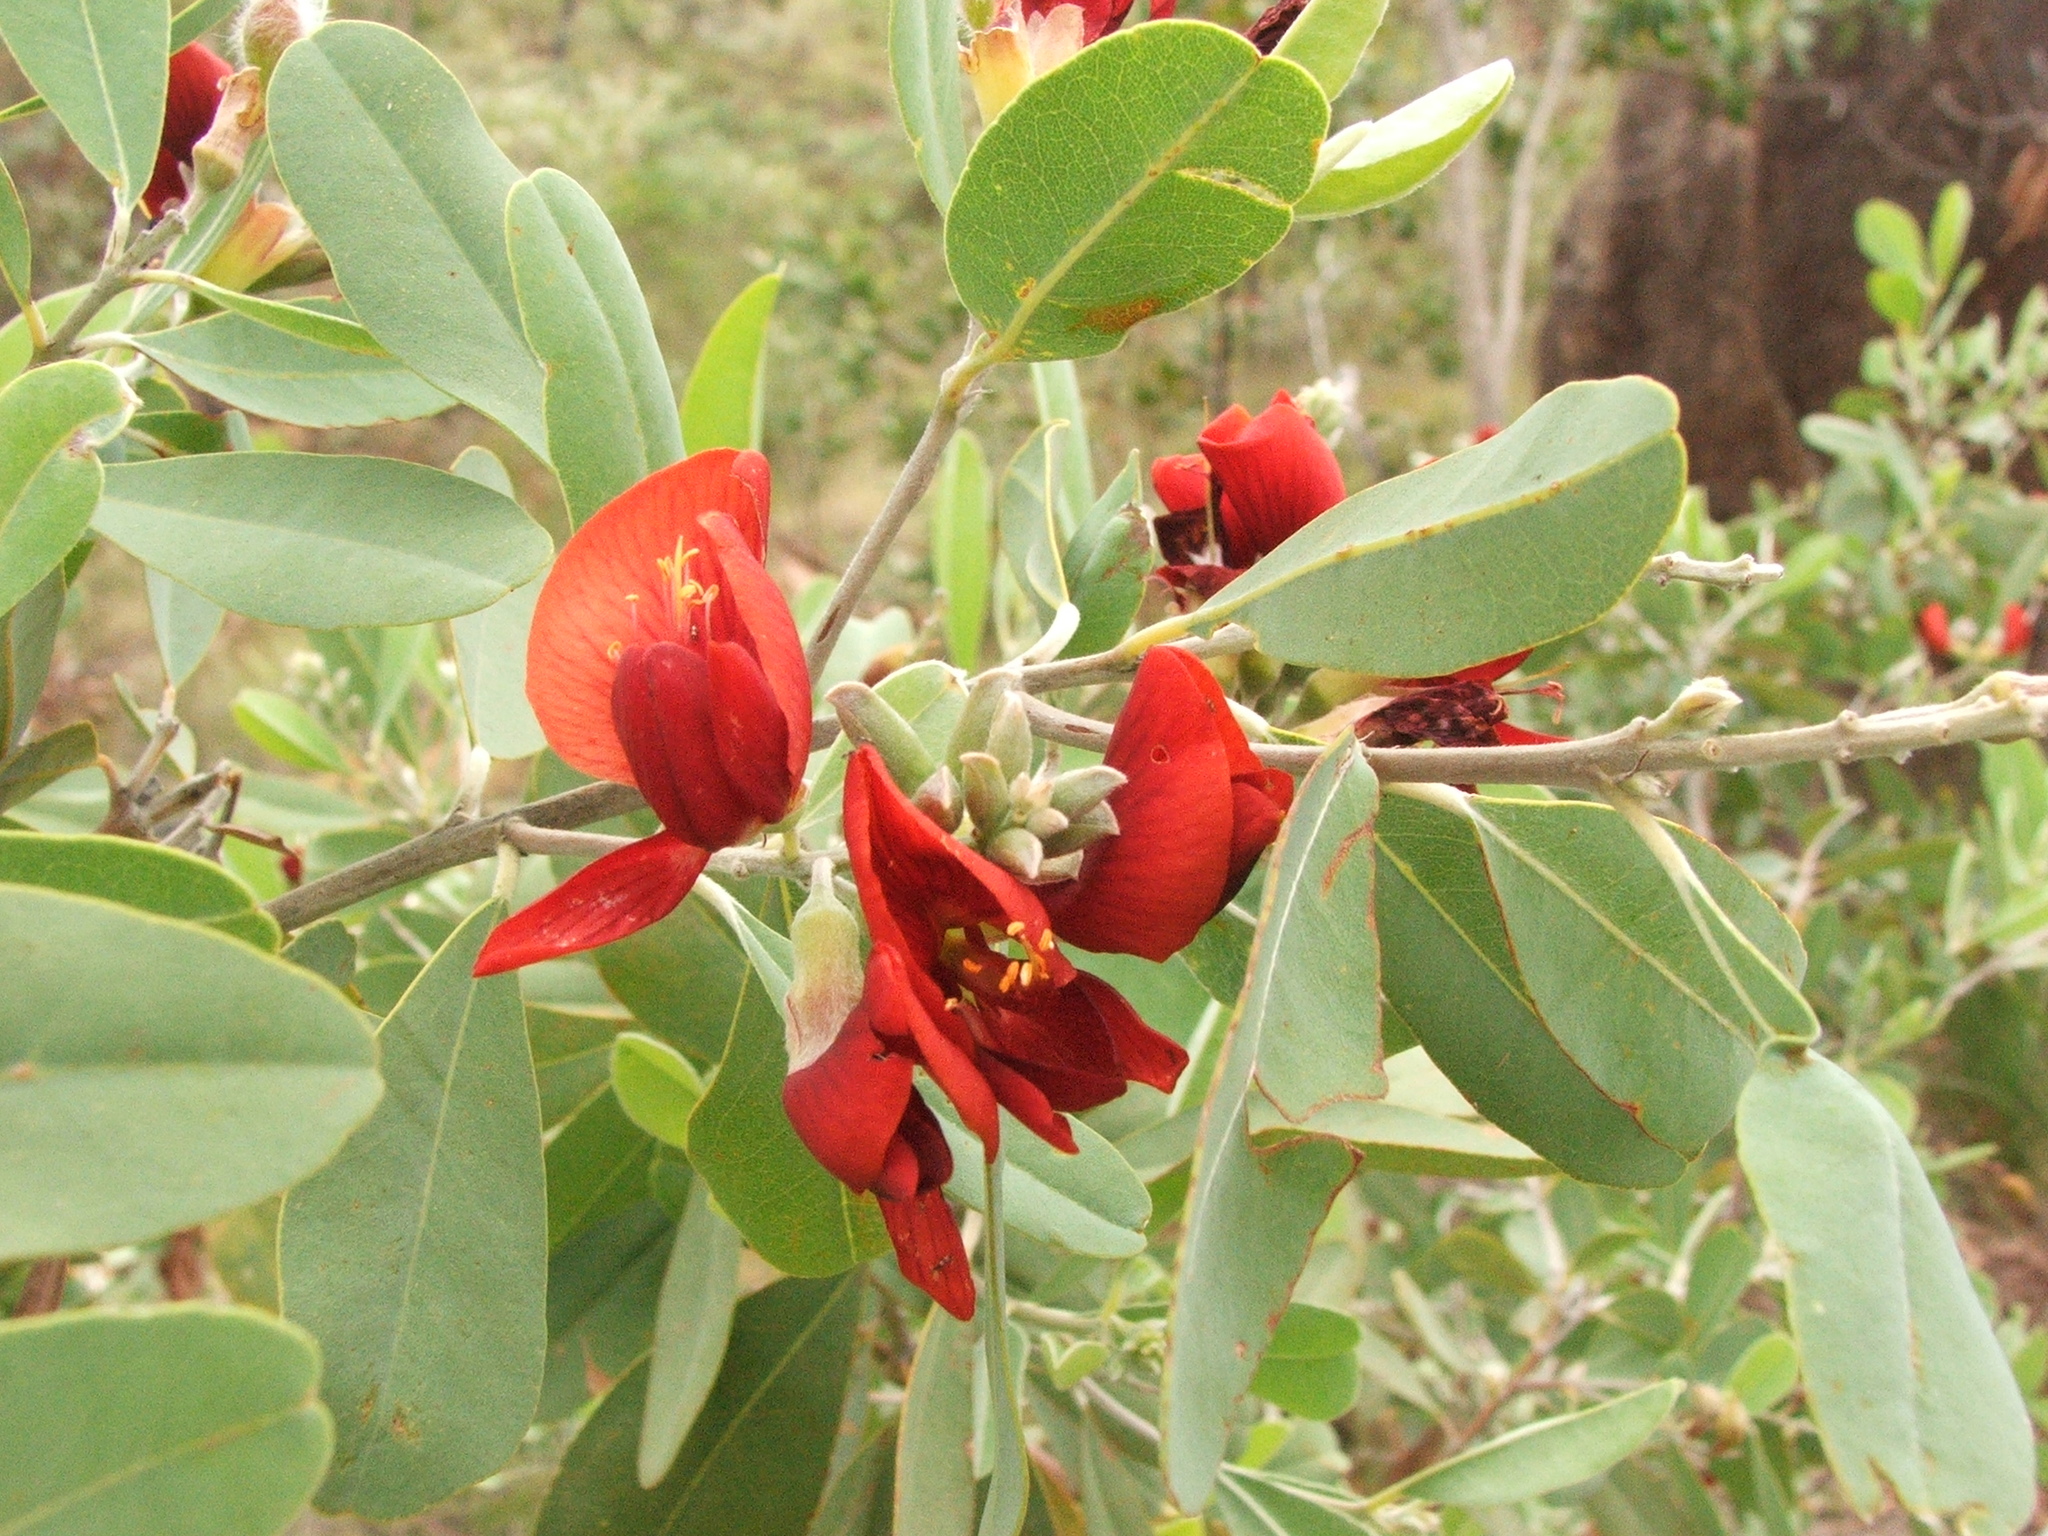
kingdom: Plantae
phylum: Tracheophyta
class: Magnoliopsida
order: Fabales
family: Fabaceae
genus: Gastrolobium
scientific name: Gastrolobium grandiflorum
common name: Australian poisonbush
